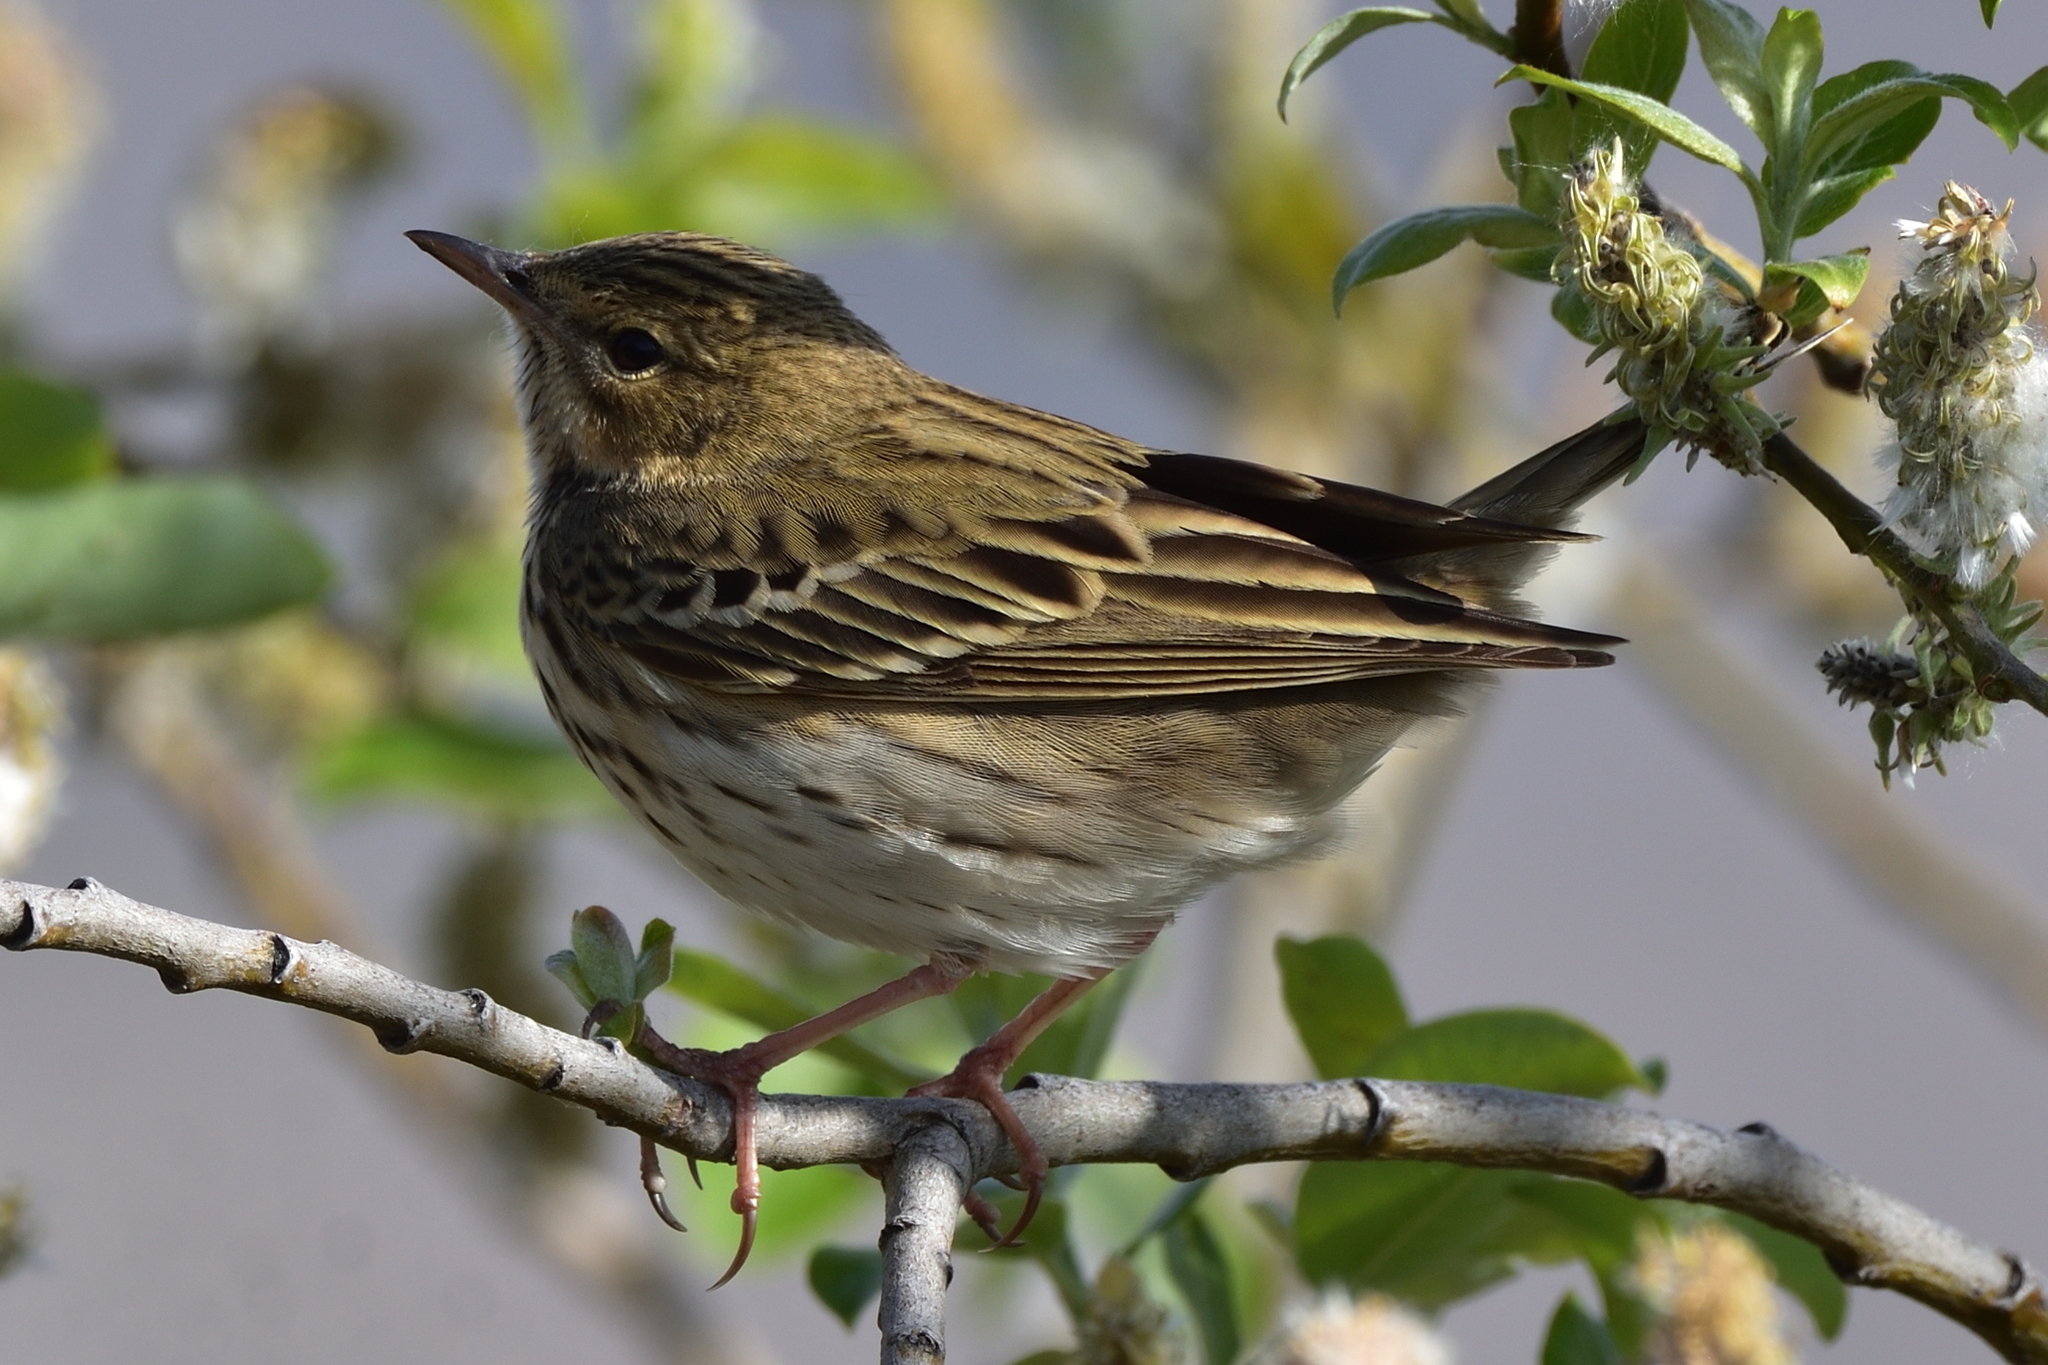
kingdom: Animalia
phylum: Chordata
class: Aves
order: Passeriformes
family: Motacillidae
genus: Anthus
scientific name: Anthus trivialis
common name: Tree pipit
